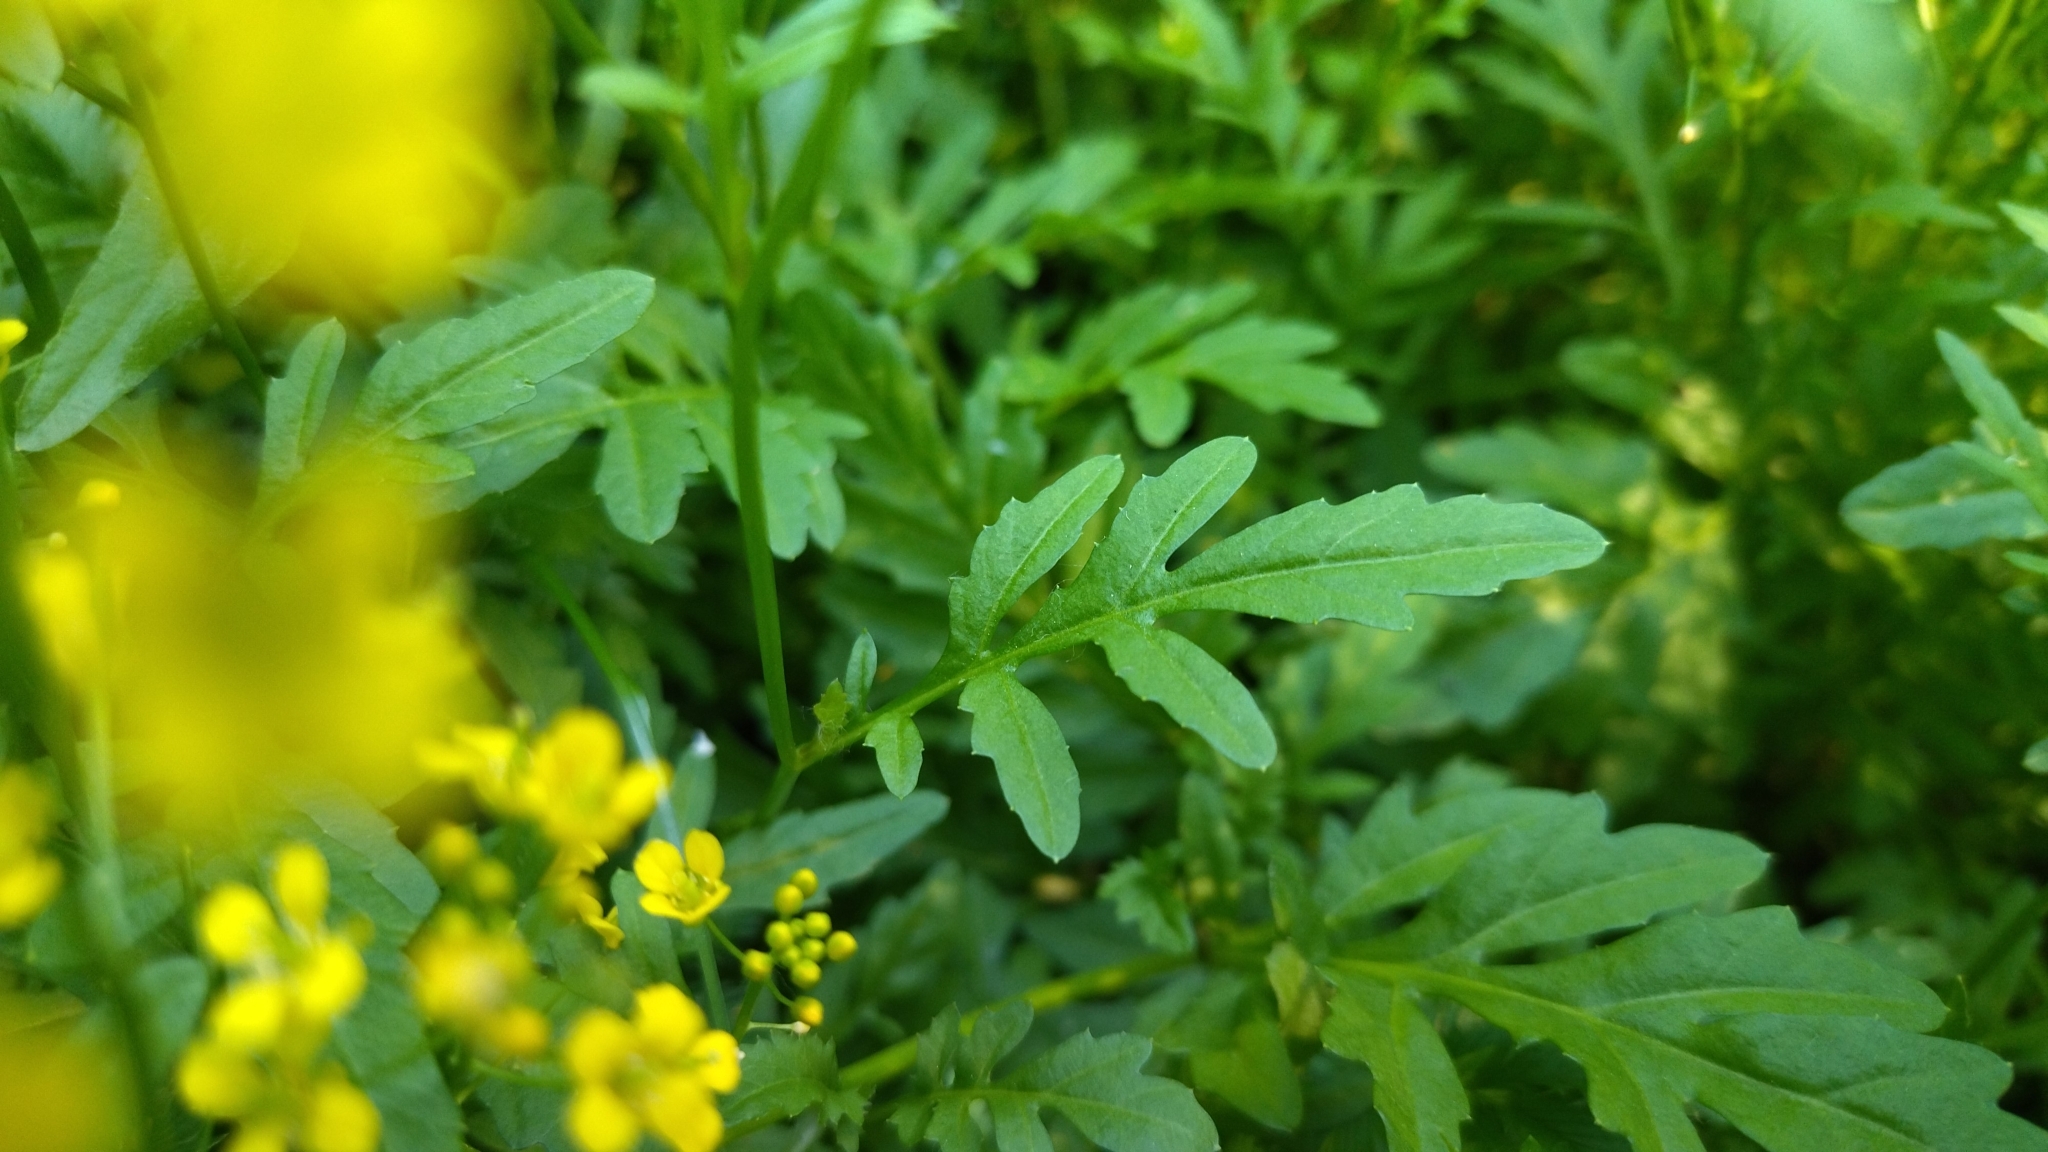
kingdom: Plantae
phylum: Tracheophyta
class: Magnoliopsida
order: Brassicales
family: Brassicaceae
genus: Rorippa
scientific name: Rorippa sylvestris
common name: Creeping yellowcress
